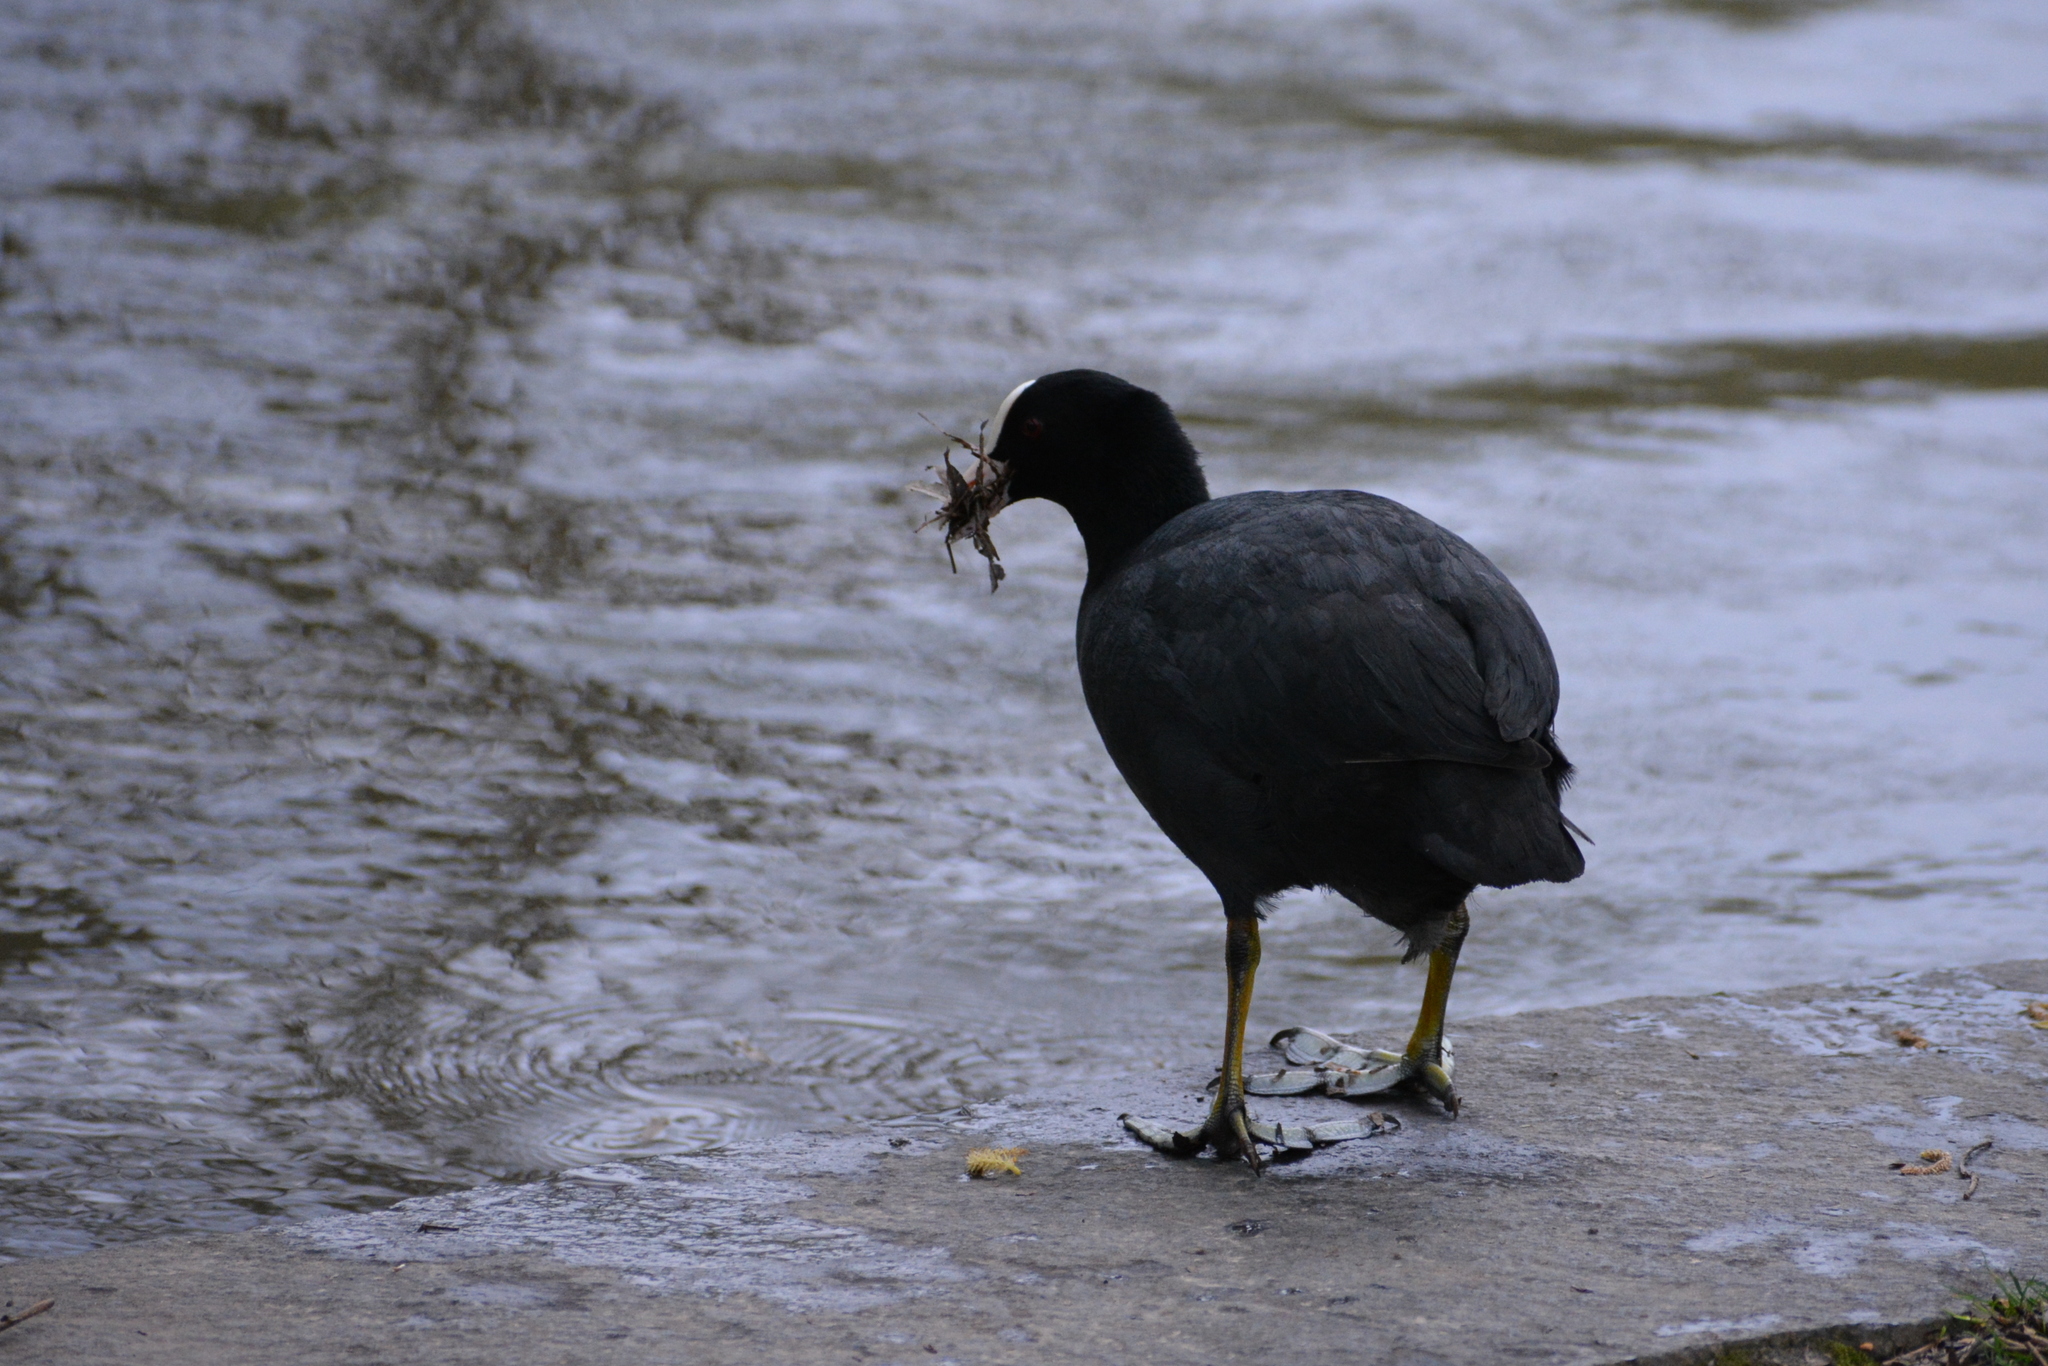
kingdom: Animalia
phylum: Chordata
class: Aves
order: Gruiformes
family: Rallidae
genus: Fulica
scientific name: Fulica atra
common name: Eurasian coot
